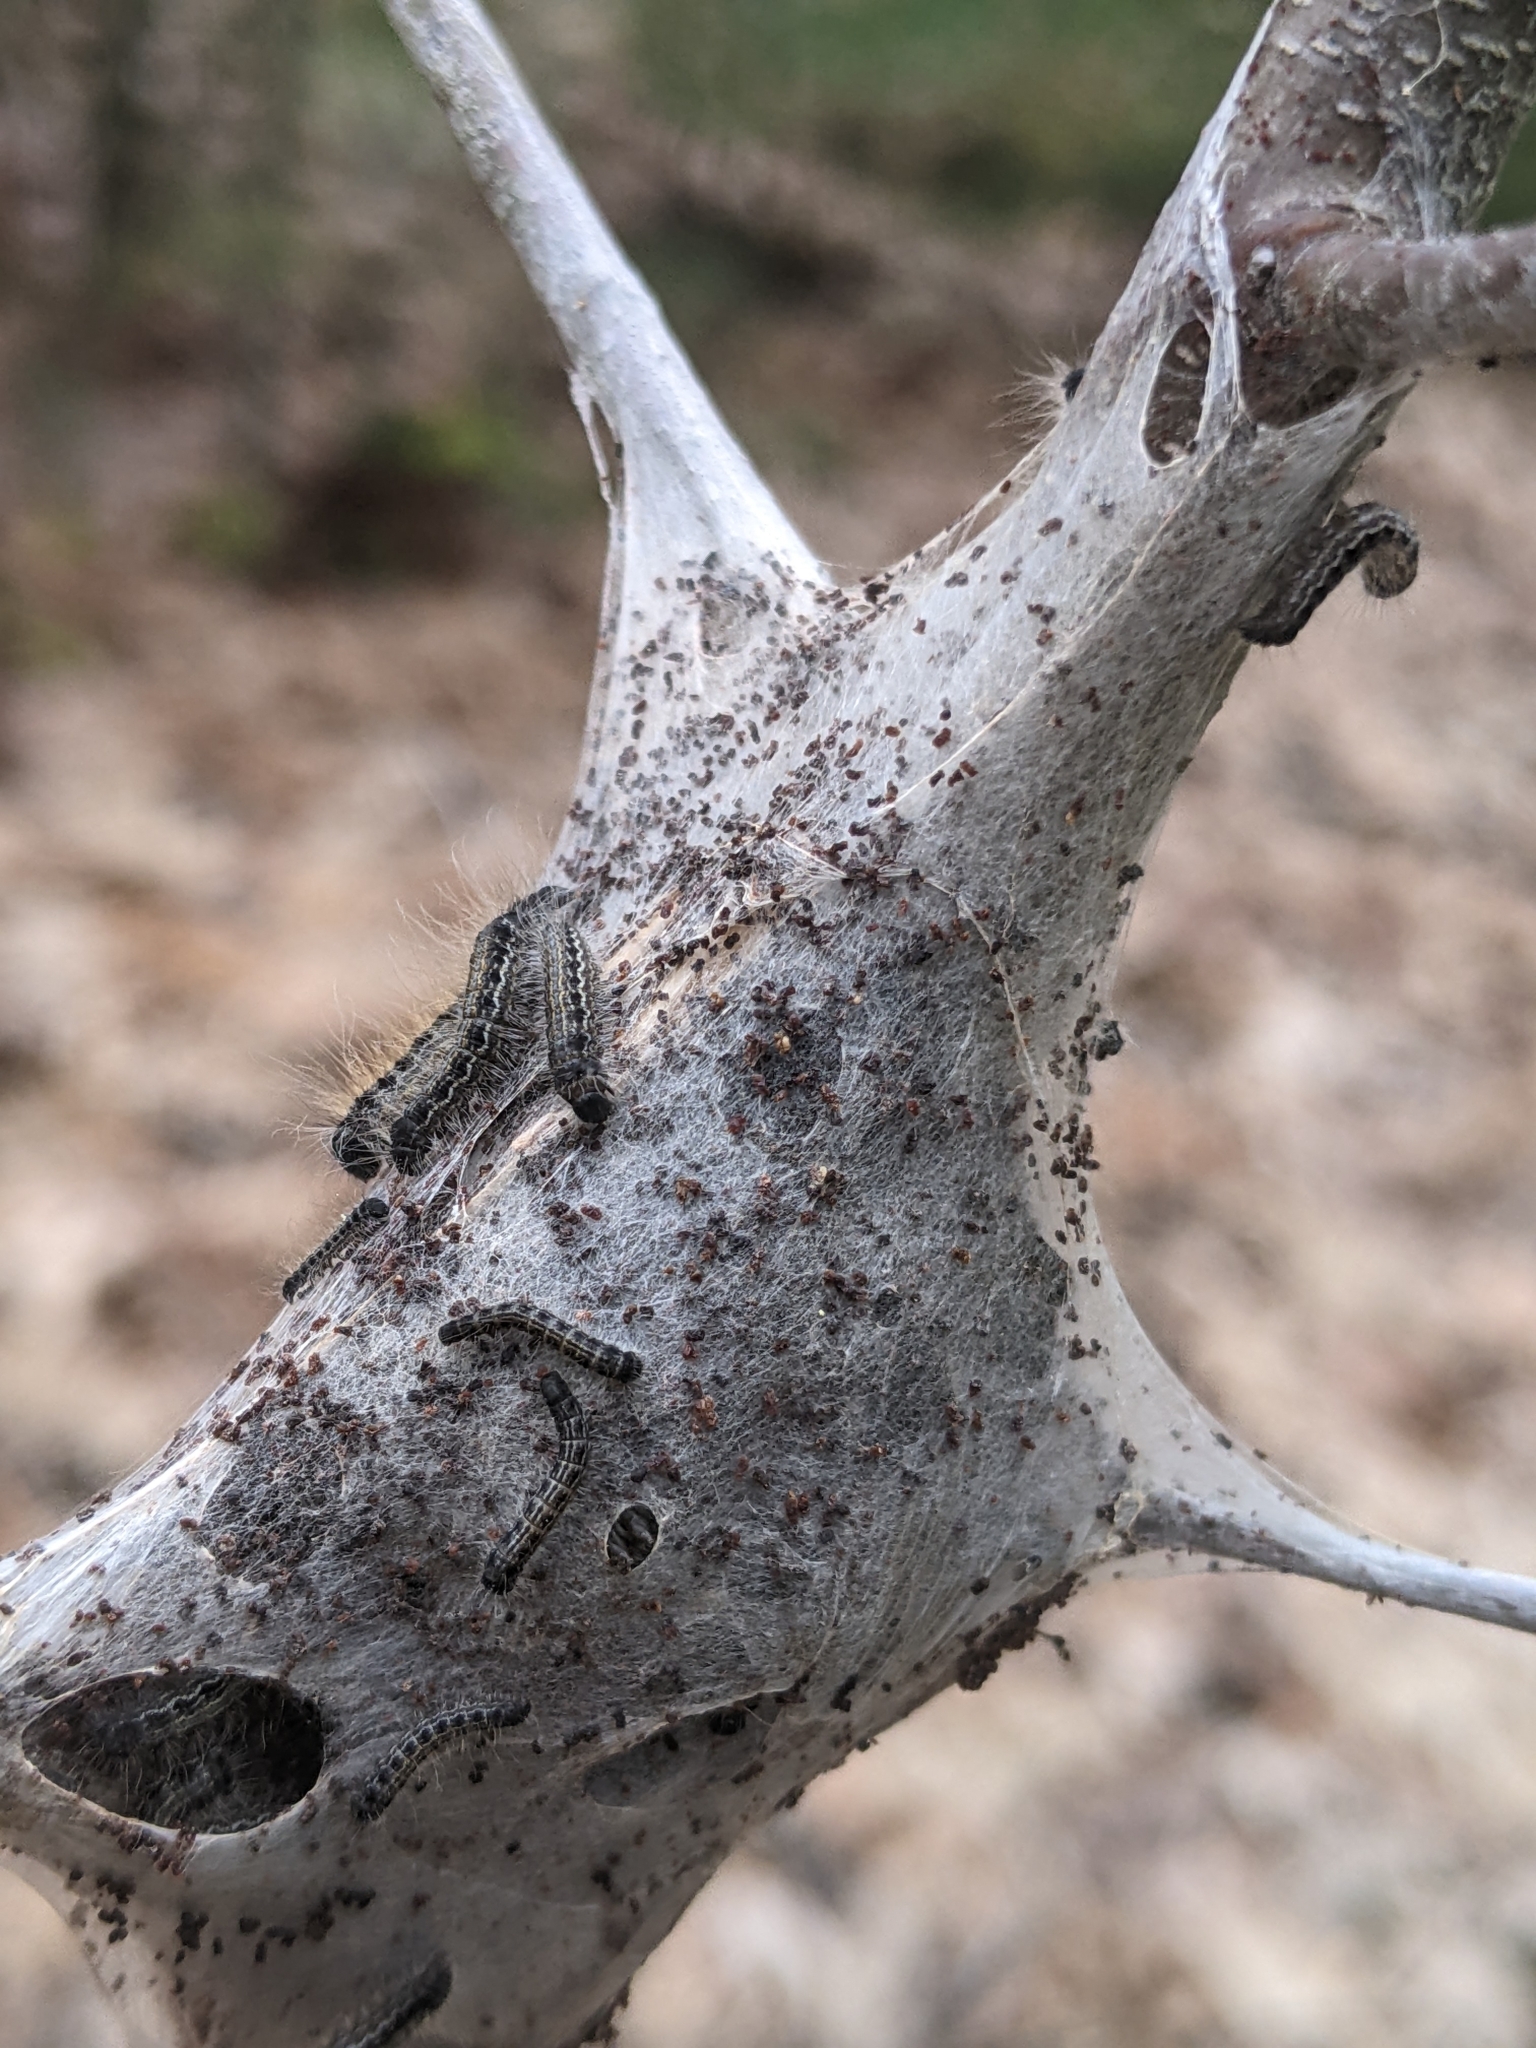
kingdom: Animalia
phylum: Arthropoda
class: Insecta
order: Lepidoptera
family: Lasiocampidae
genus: Malacosoma
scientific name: Malacosoma americana
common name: Eastern tent caterpillar moth
